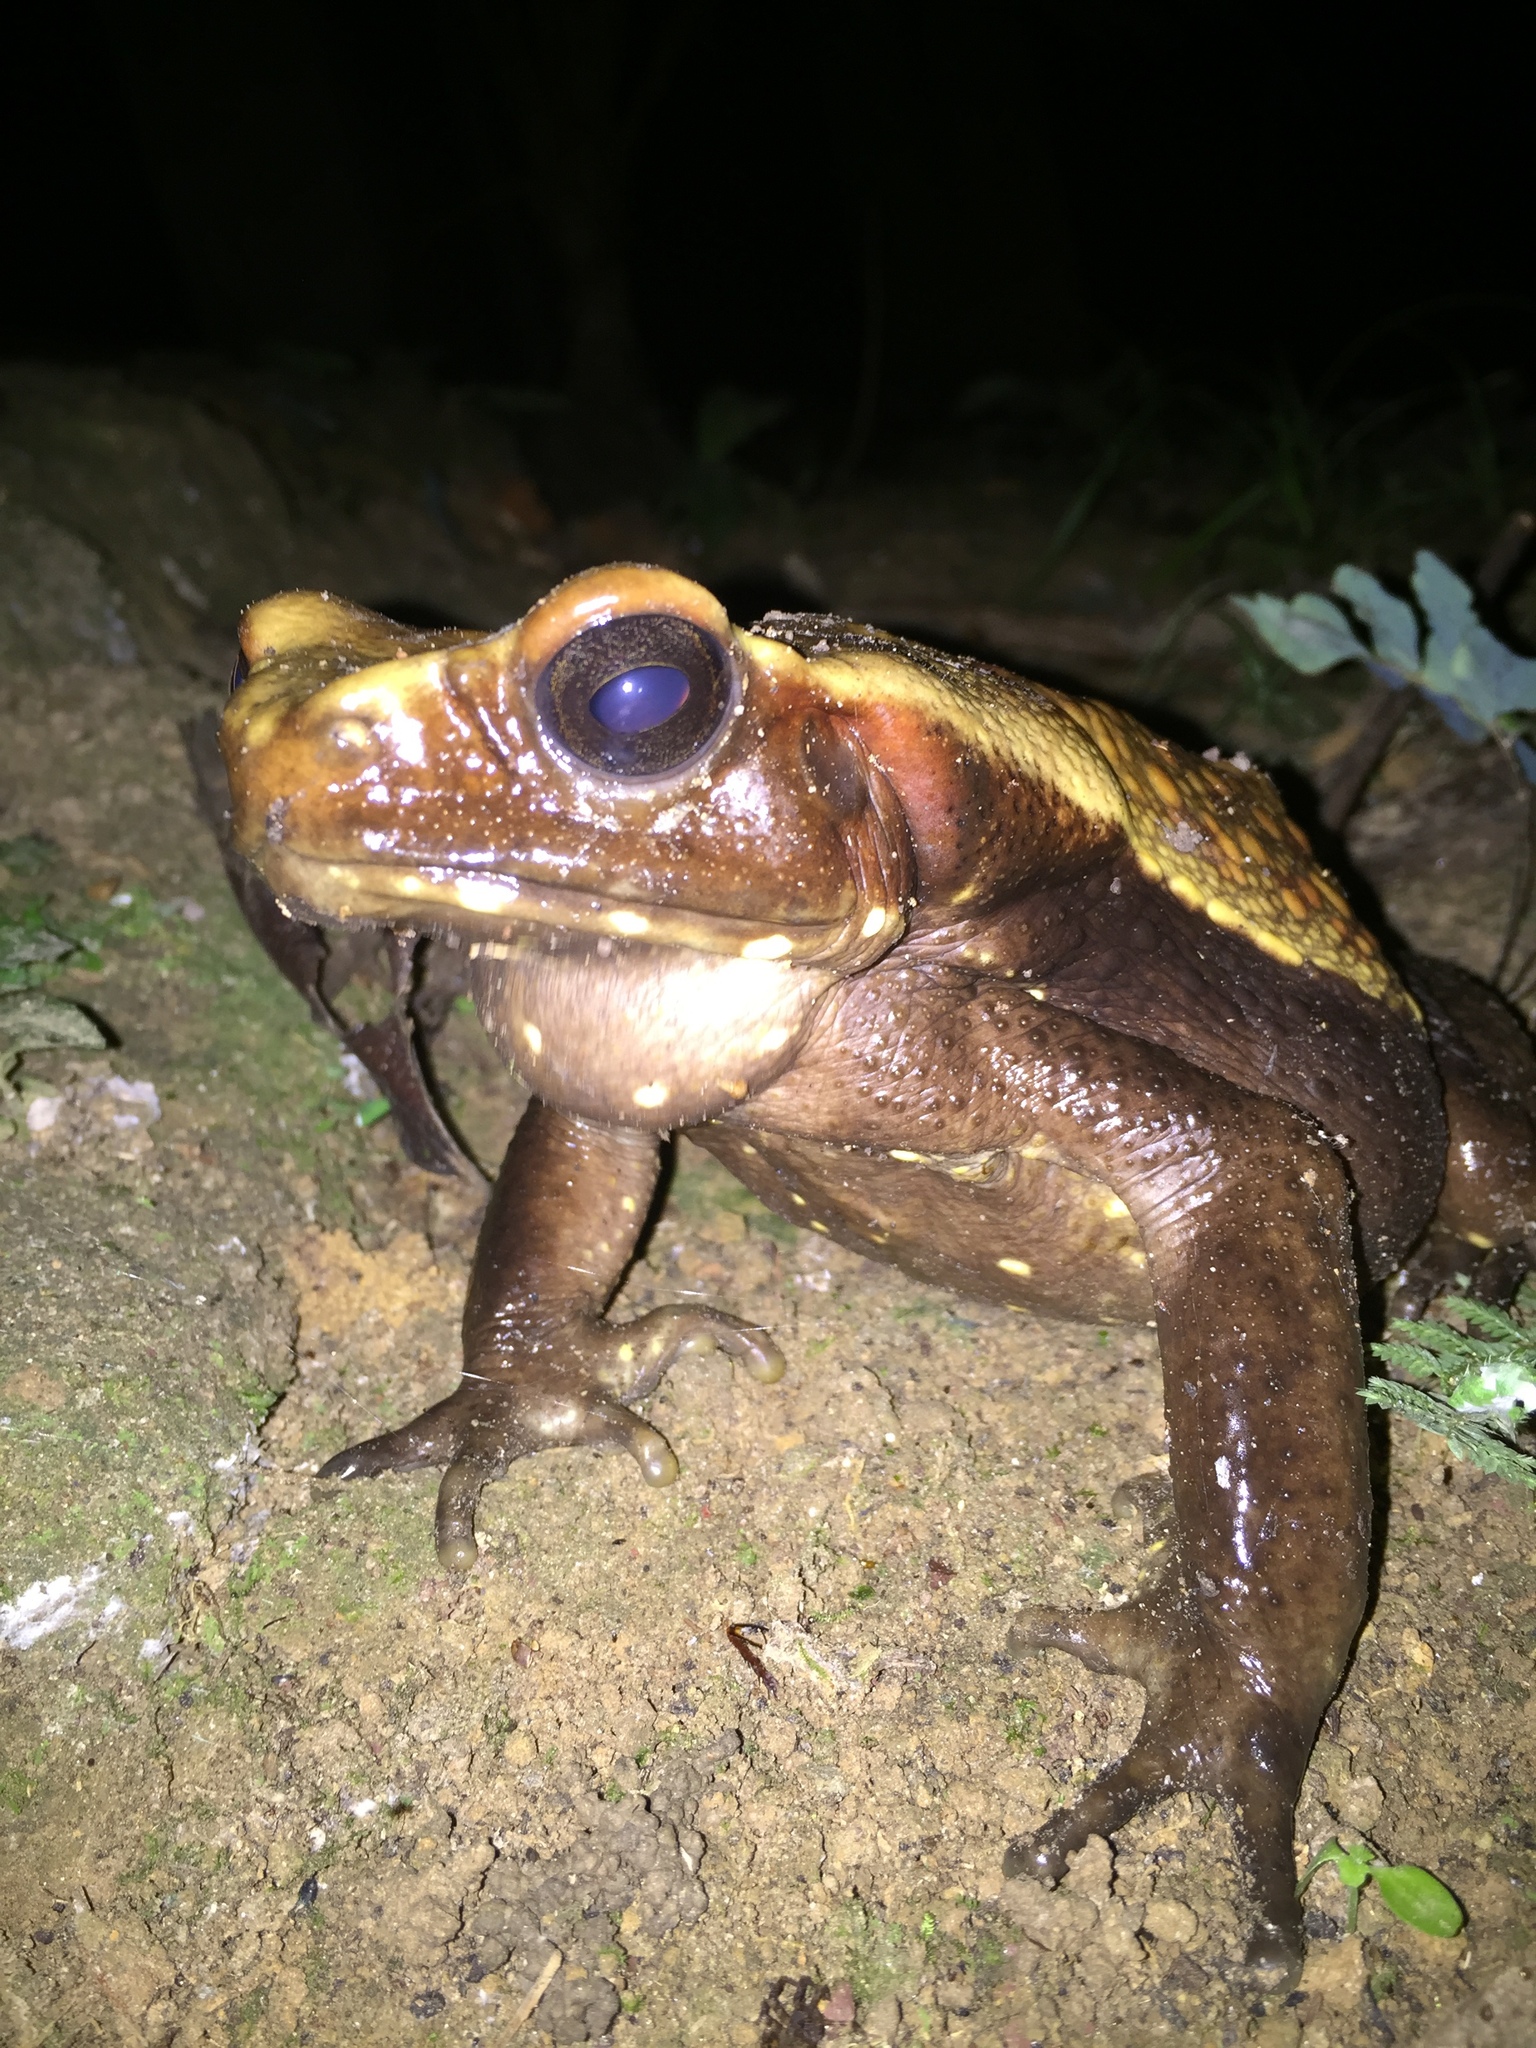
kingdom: Animalia
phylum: Chordata
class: Amphibia
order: Anura
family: Bufonidae
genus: Rhaebo
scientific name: Rhaebo guttatus
